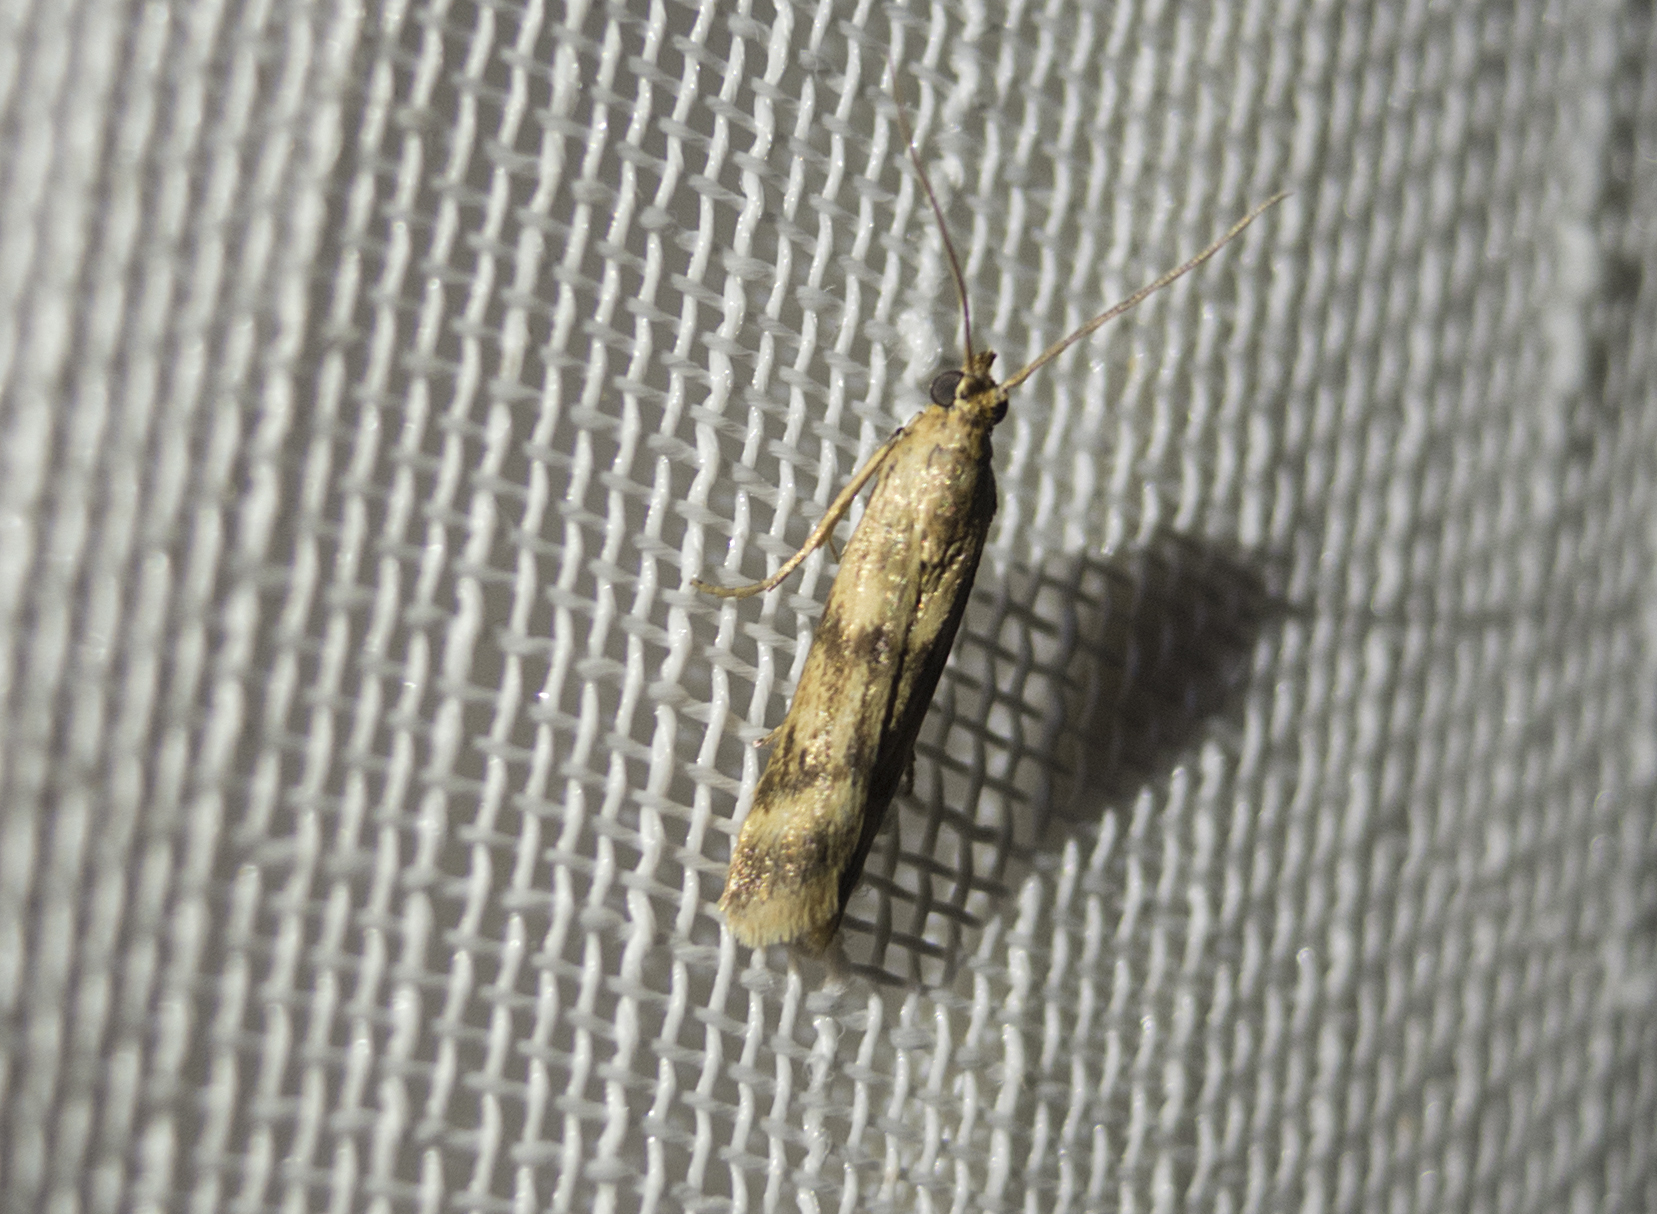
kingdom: Animalia
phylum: Arthropoda
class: Insecta
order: Lepidoptera
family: Pyralidae
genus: Homoeosoma
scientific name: Homoeosoma sinuella
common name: Twin-barred knot-horn
